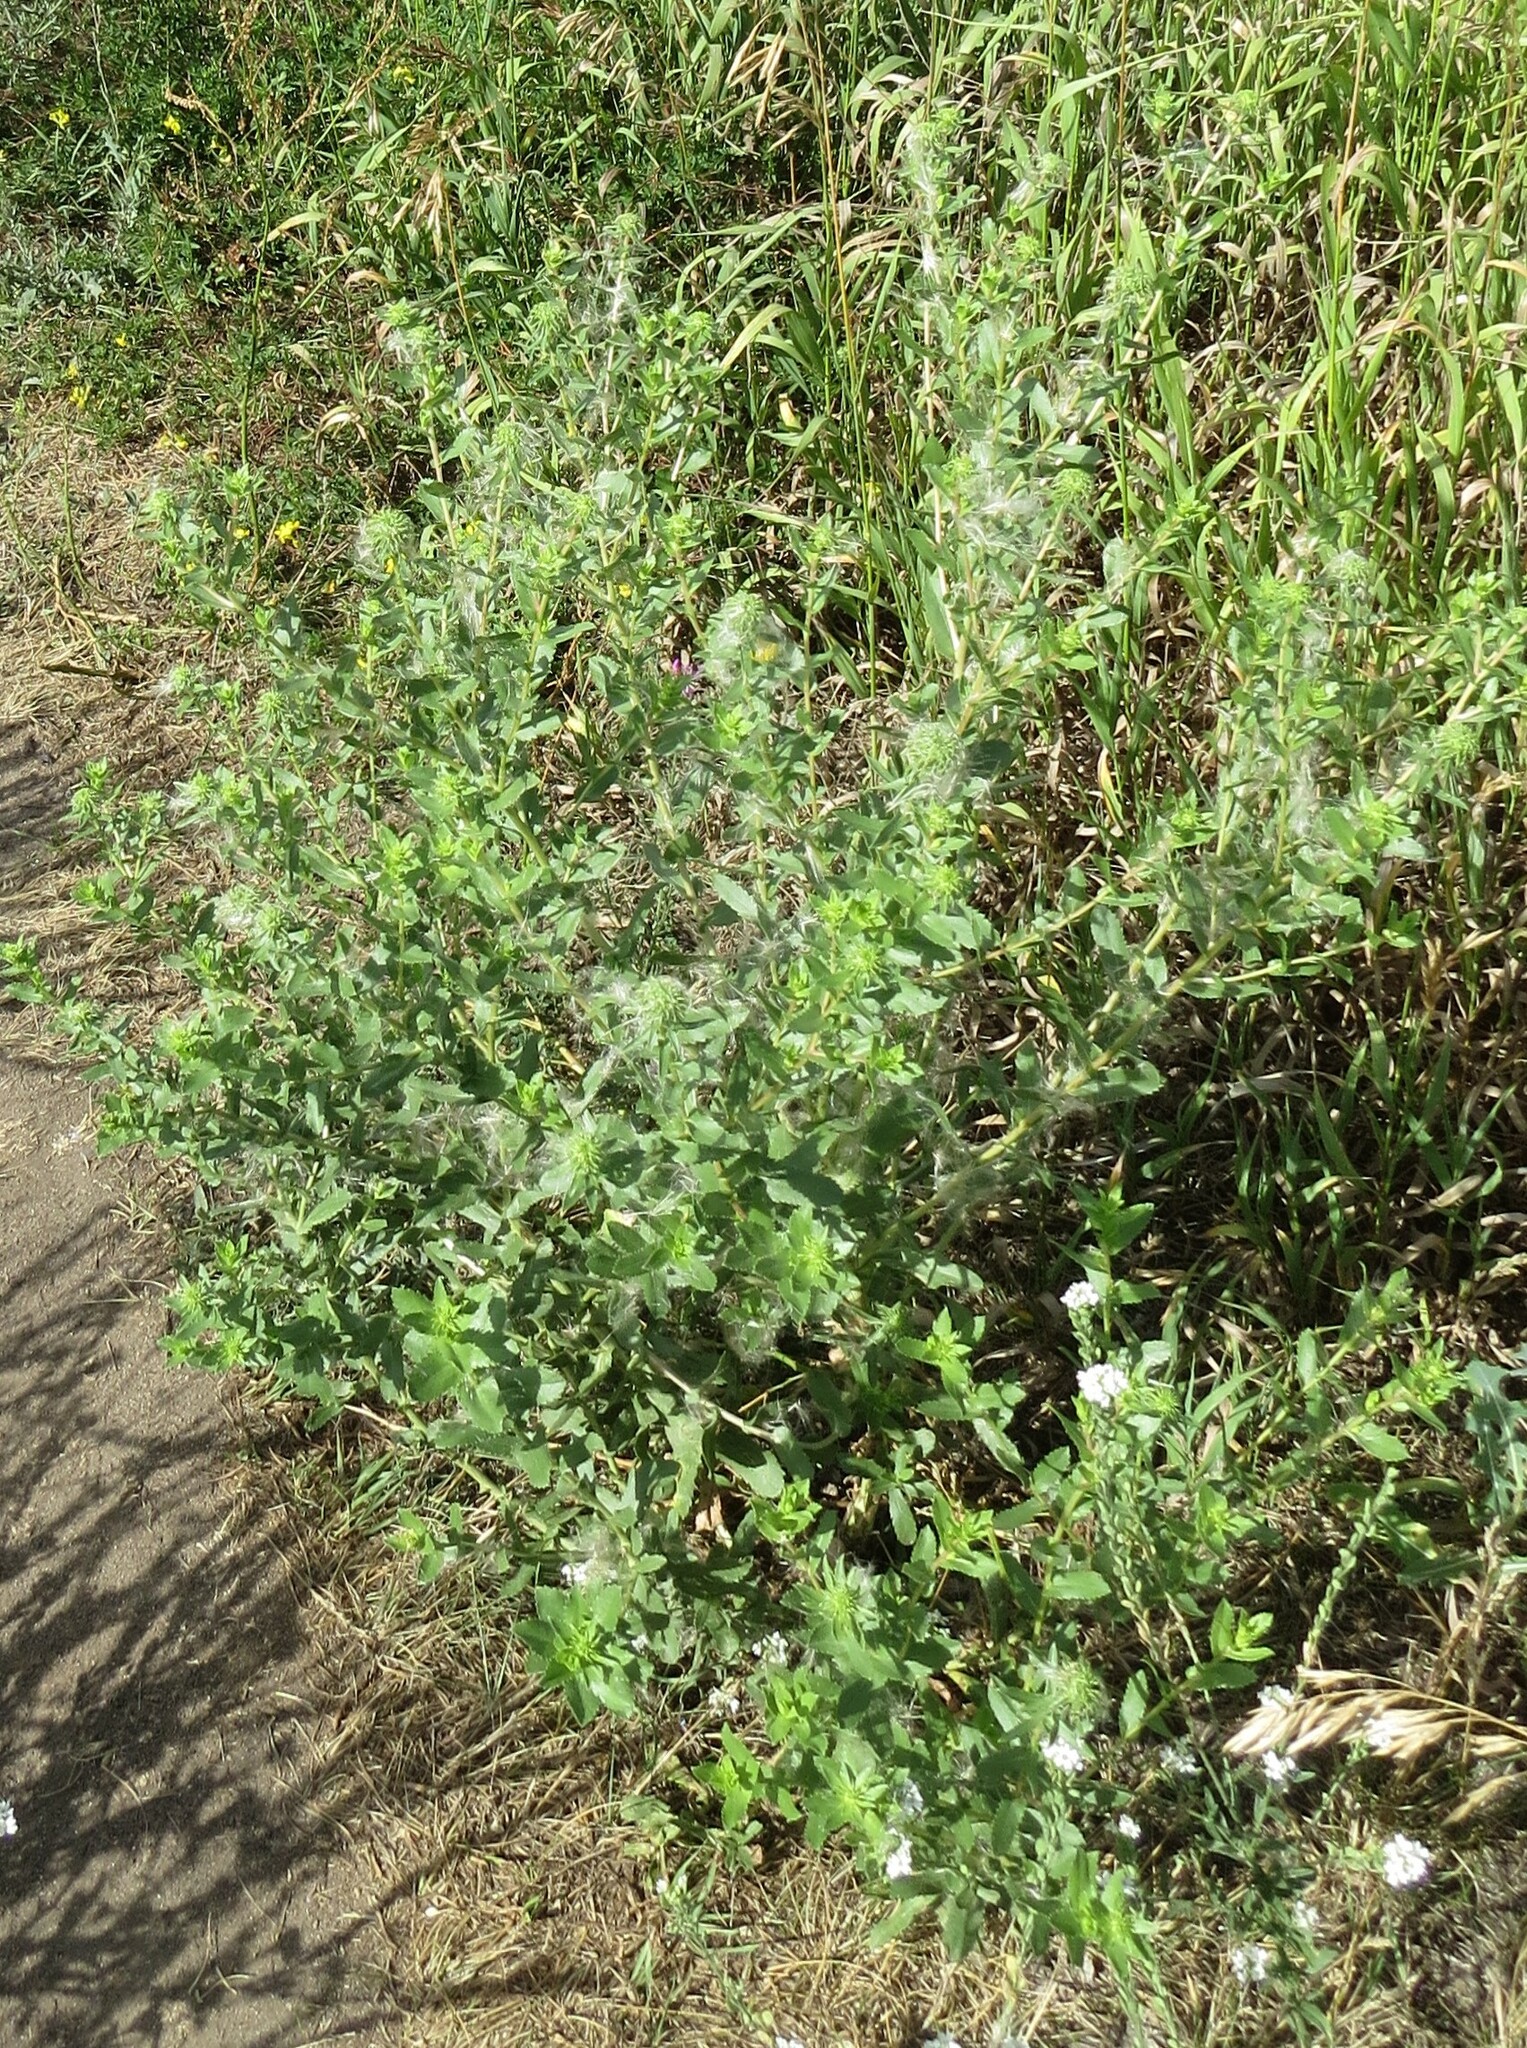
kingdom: Plantae
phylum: Tracheophyta
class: Magnoliopsida
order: Asterales
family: Asteraceae
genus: Grindelia
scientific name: Grindelia squarrosa
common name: Curly-cup gumweed
